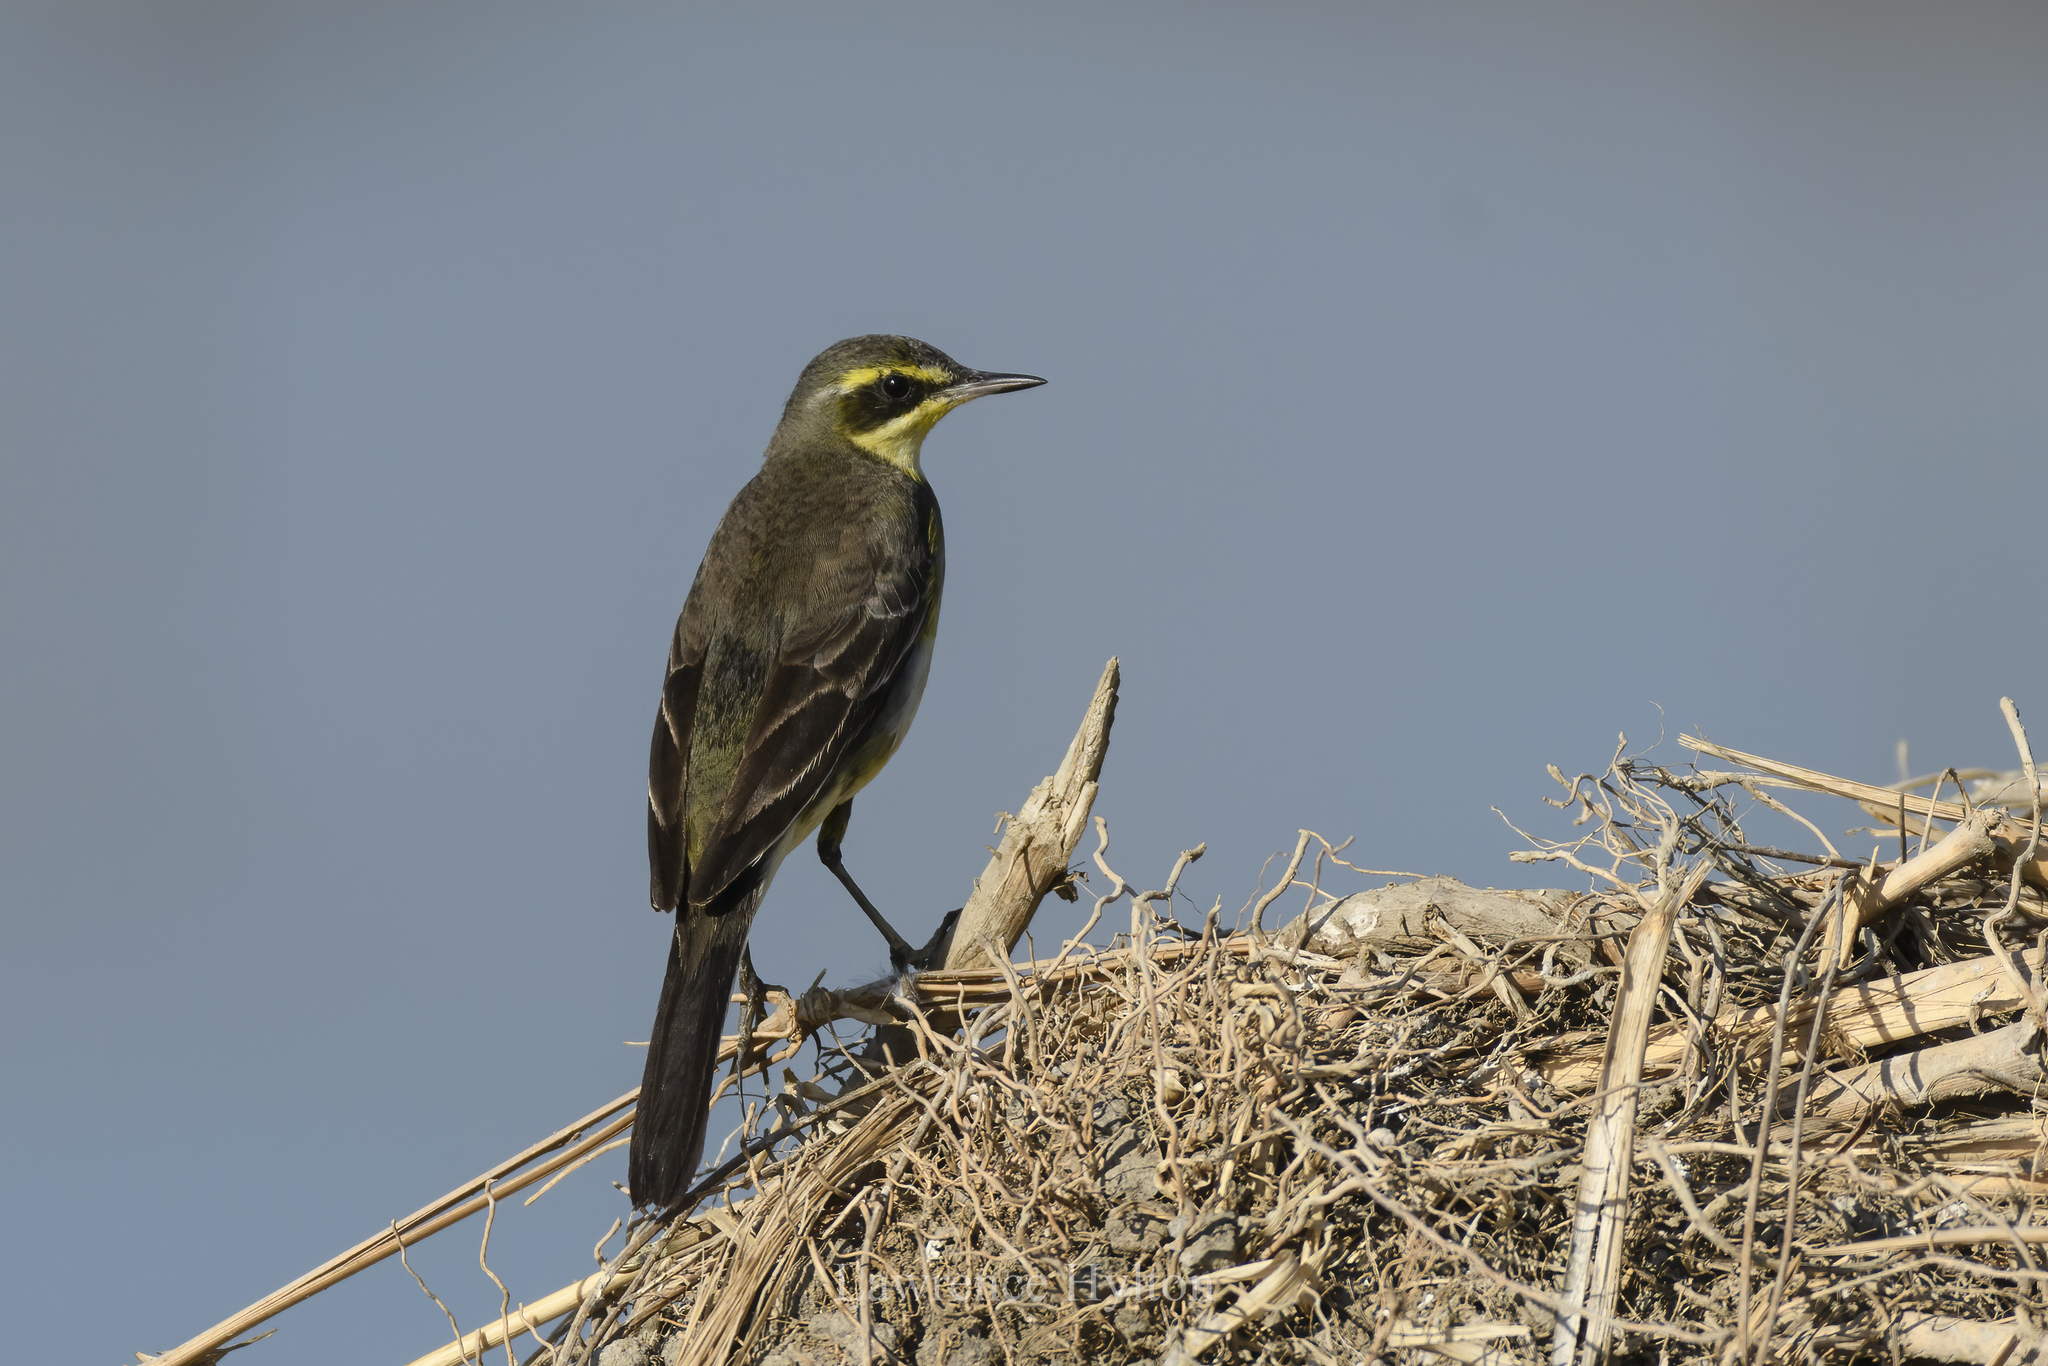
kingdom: Animalia
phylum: Chordata
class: Aves
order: Passeriformes
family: Motacillidae
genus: Motacilla
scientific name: Motacilla tschutschensis
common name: Eastern yellow wagtail
